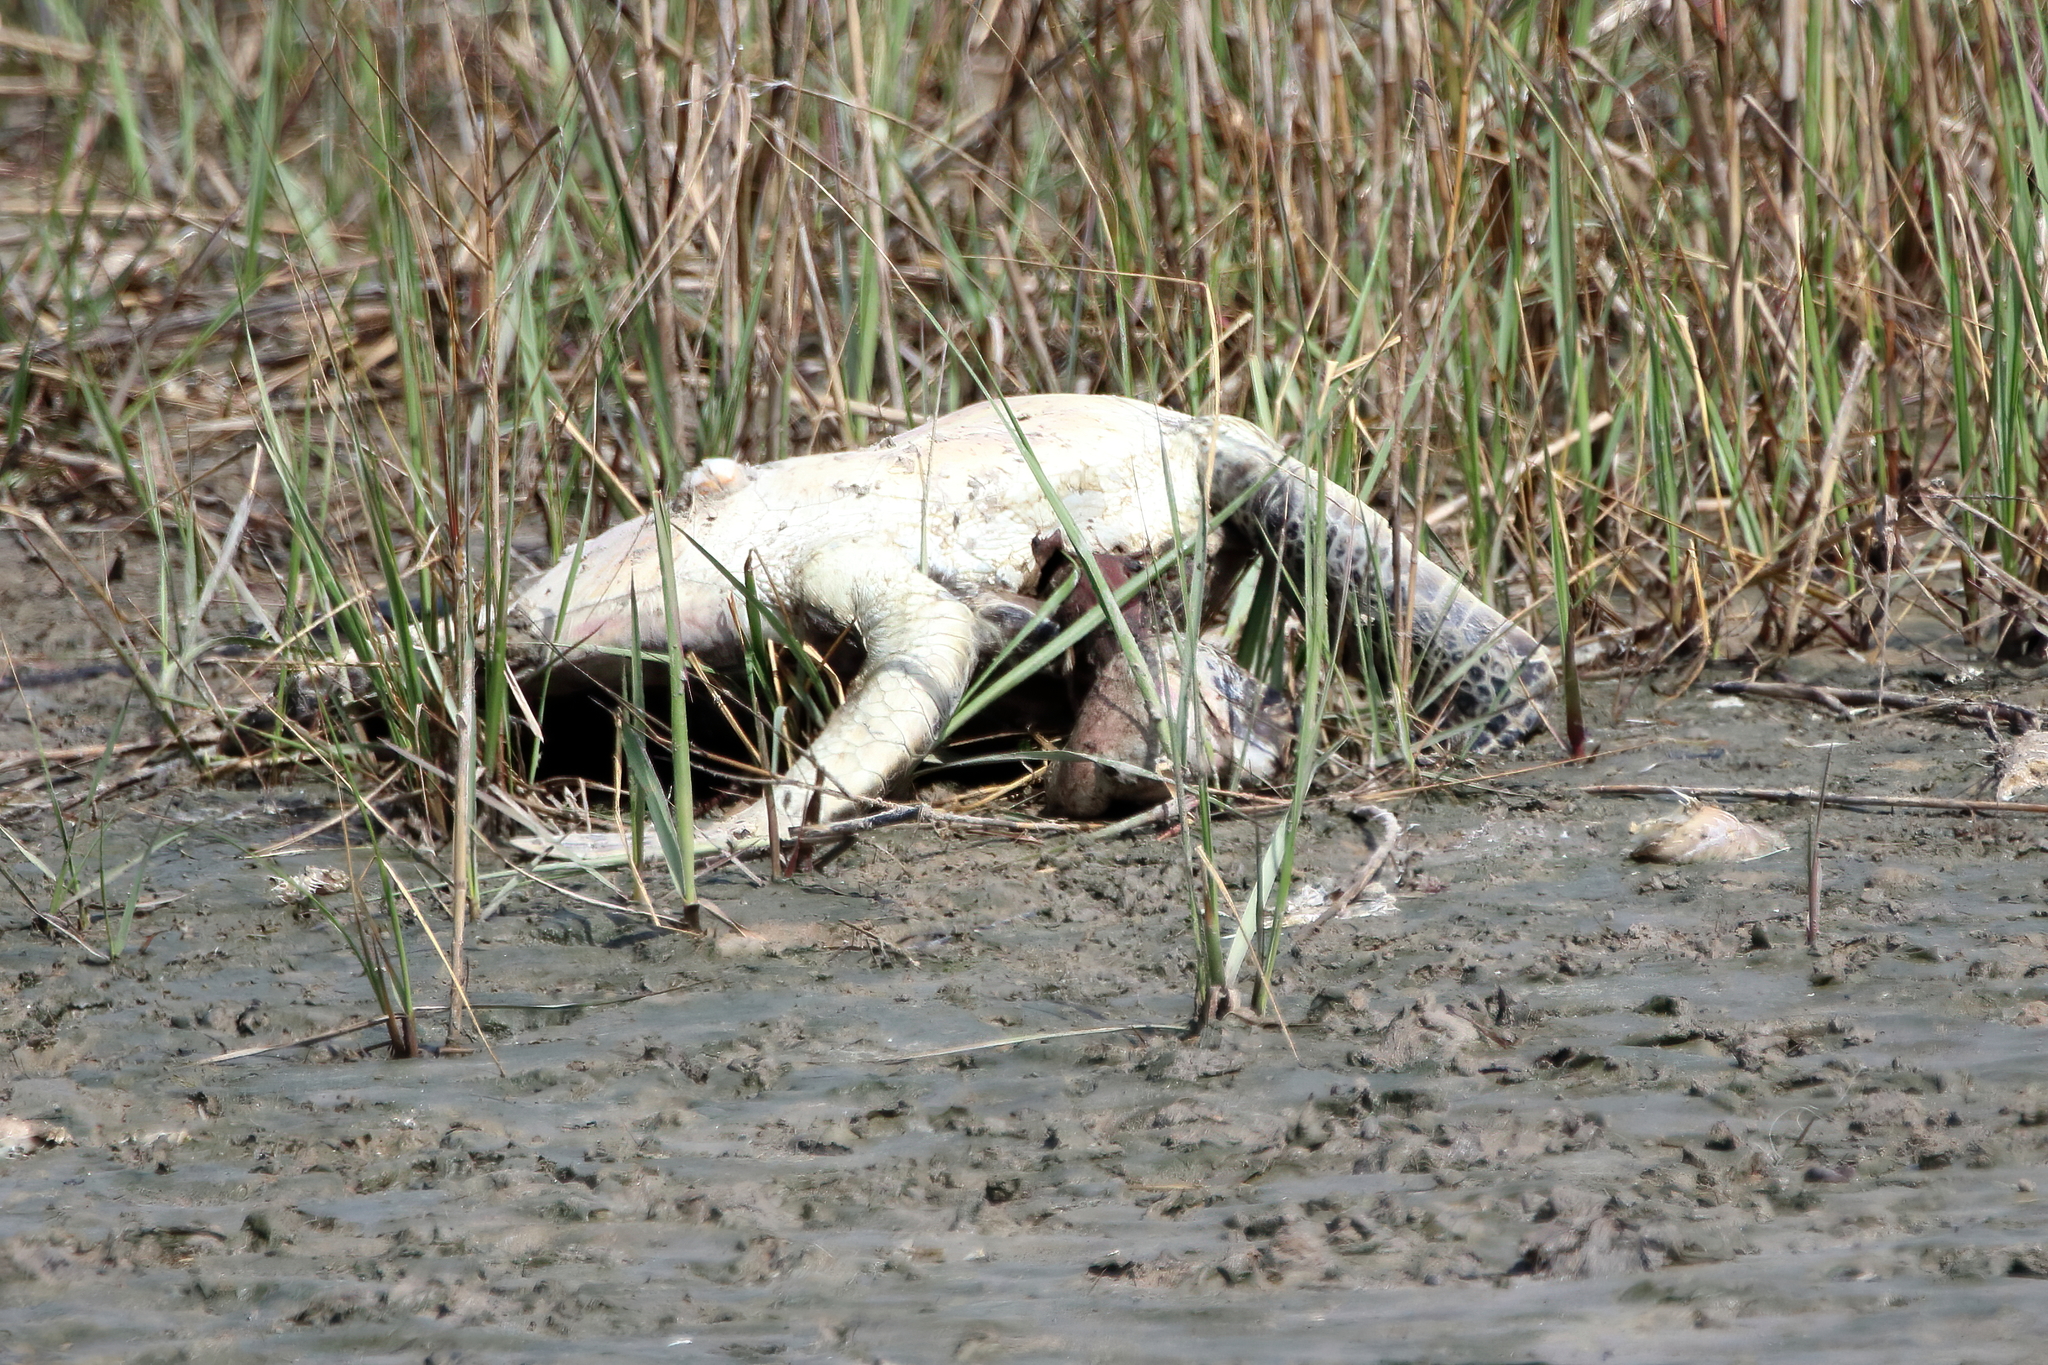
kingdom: Animalia
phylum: Chordata
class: Testudines
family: Cheloniidae
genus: Chelonia
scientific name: Chelonia mydas
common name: Green turtle
